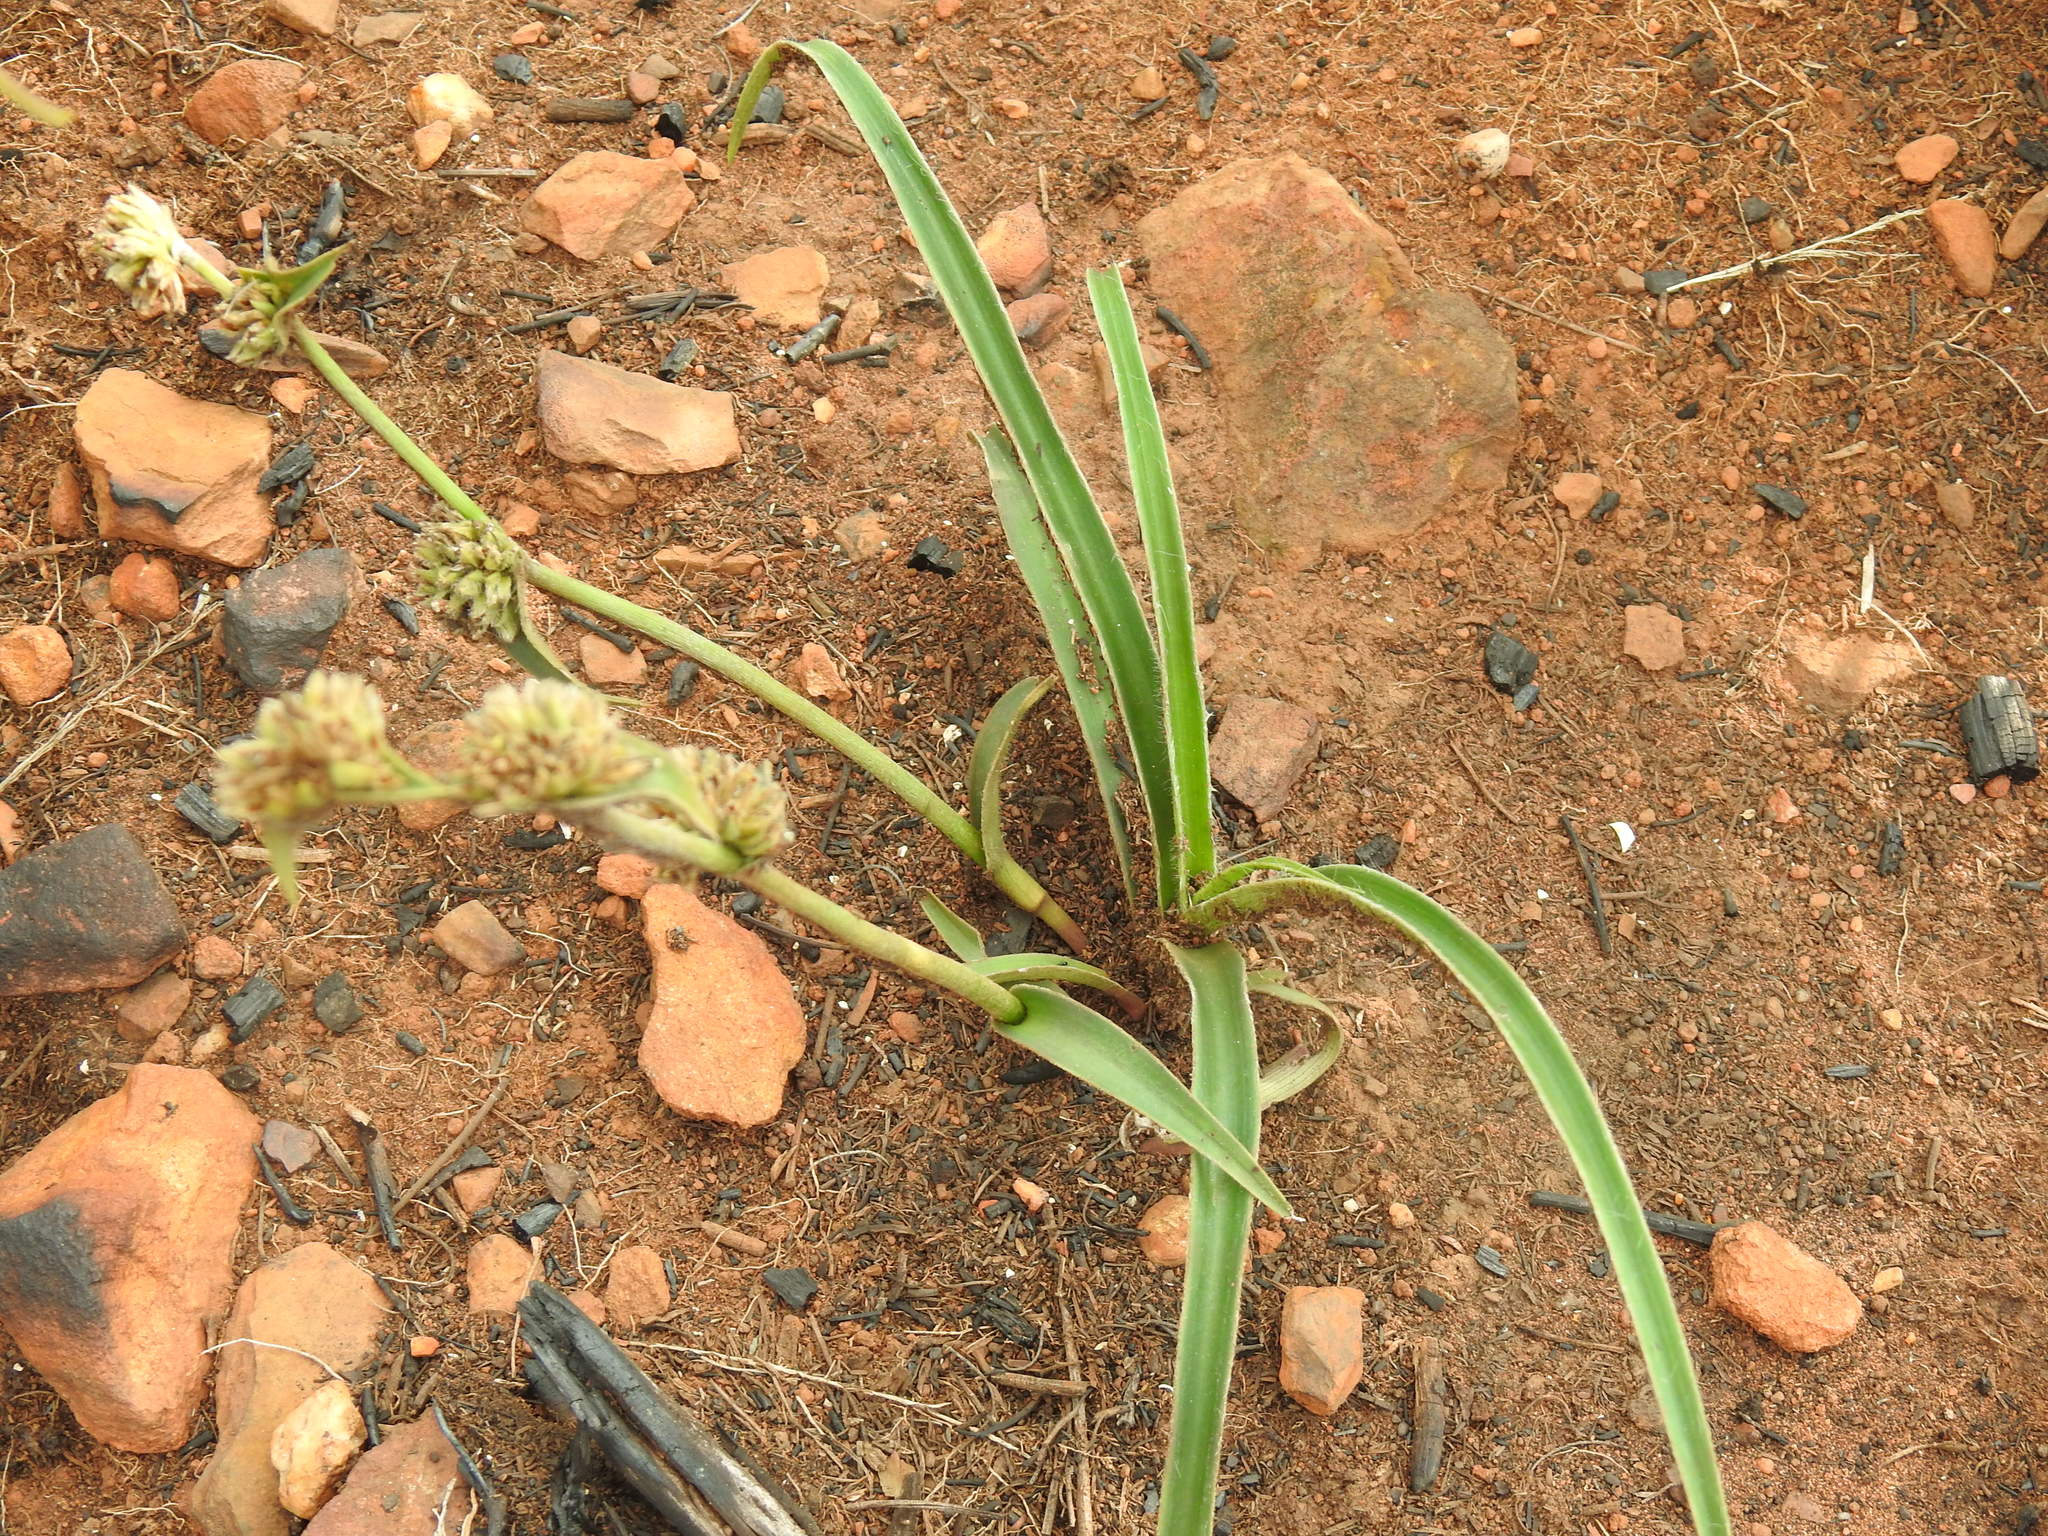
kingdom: Plantae
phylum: Tracheophyta
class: Liliopsida
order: Commelinales
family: Commelinaceae
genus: Cyanotis
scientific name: Cyanotis speciosa
